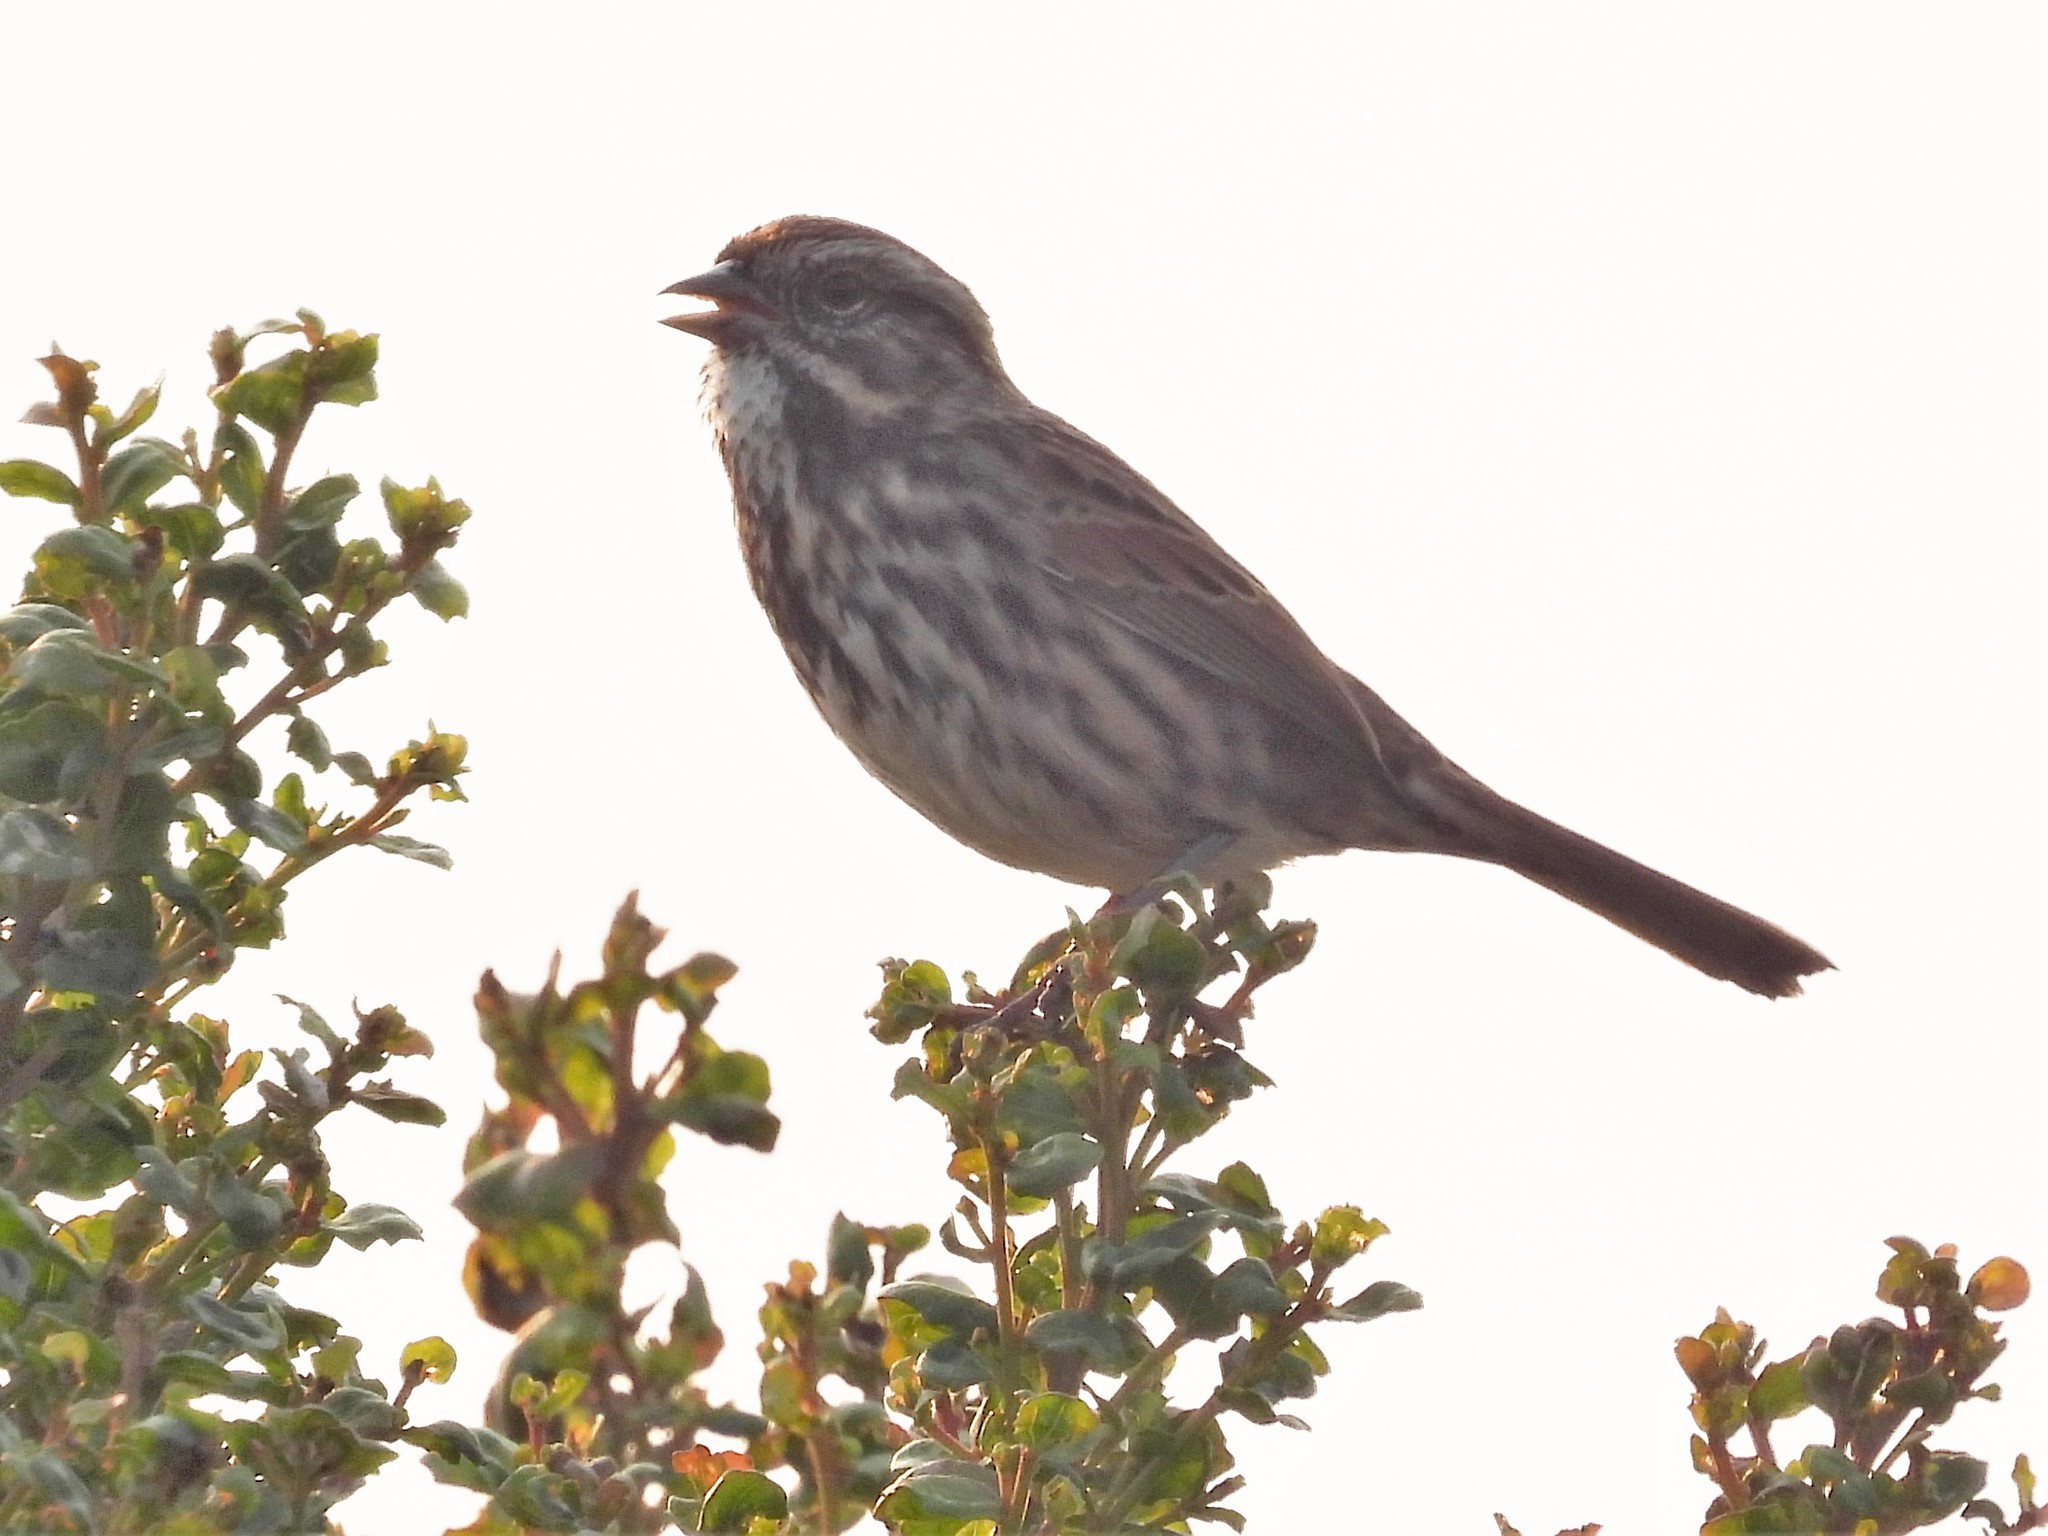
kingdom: Animalia
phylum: Chordata
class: Aves
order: Passeriformes
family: Passerellidae
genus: Melospiza
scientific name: Melospiza melodia
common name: Song sparrow
